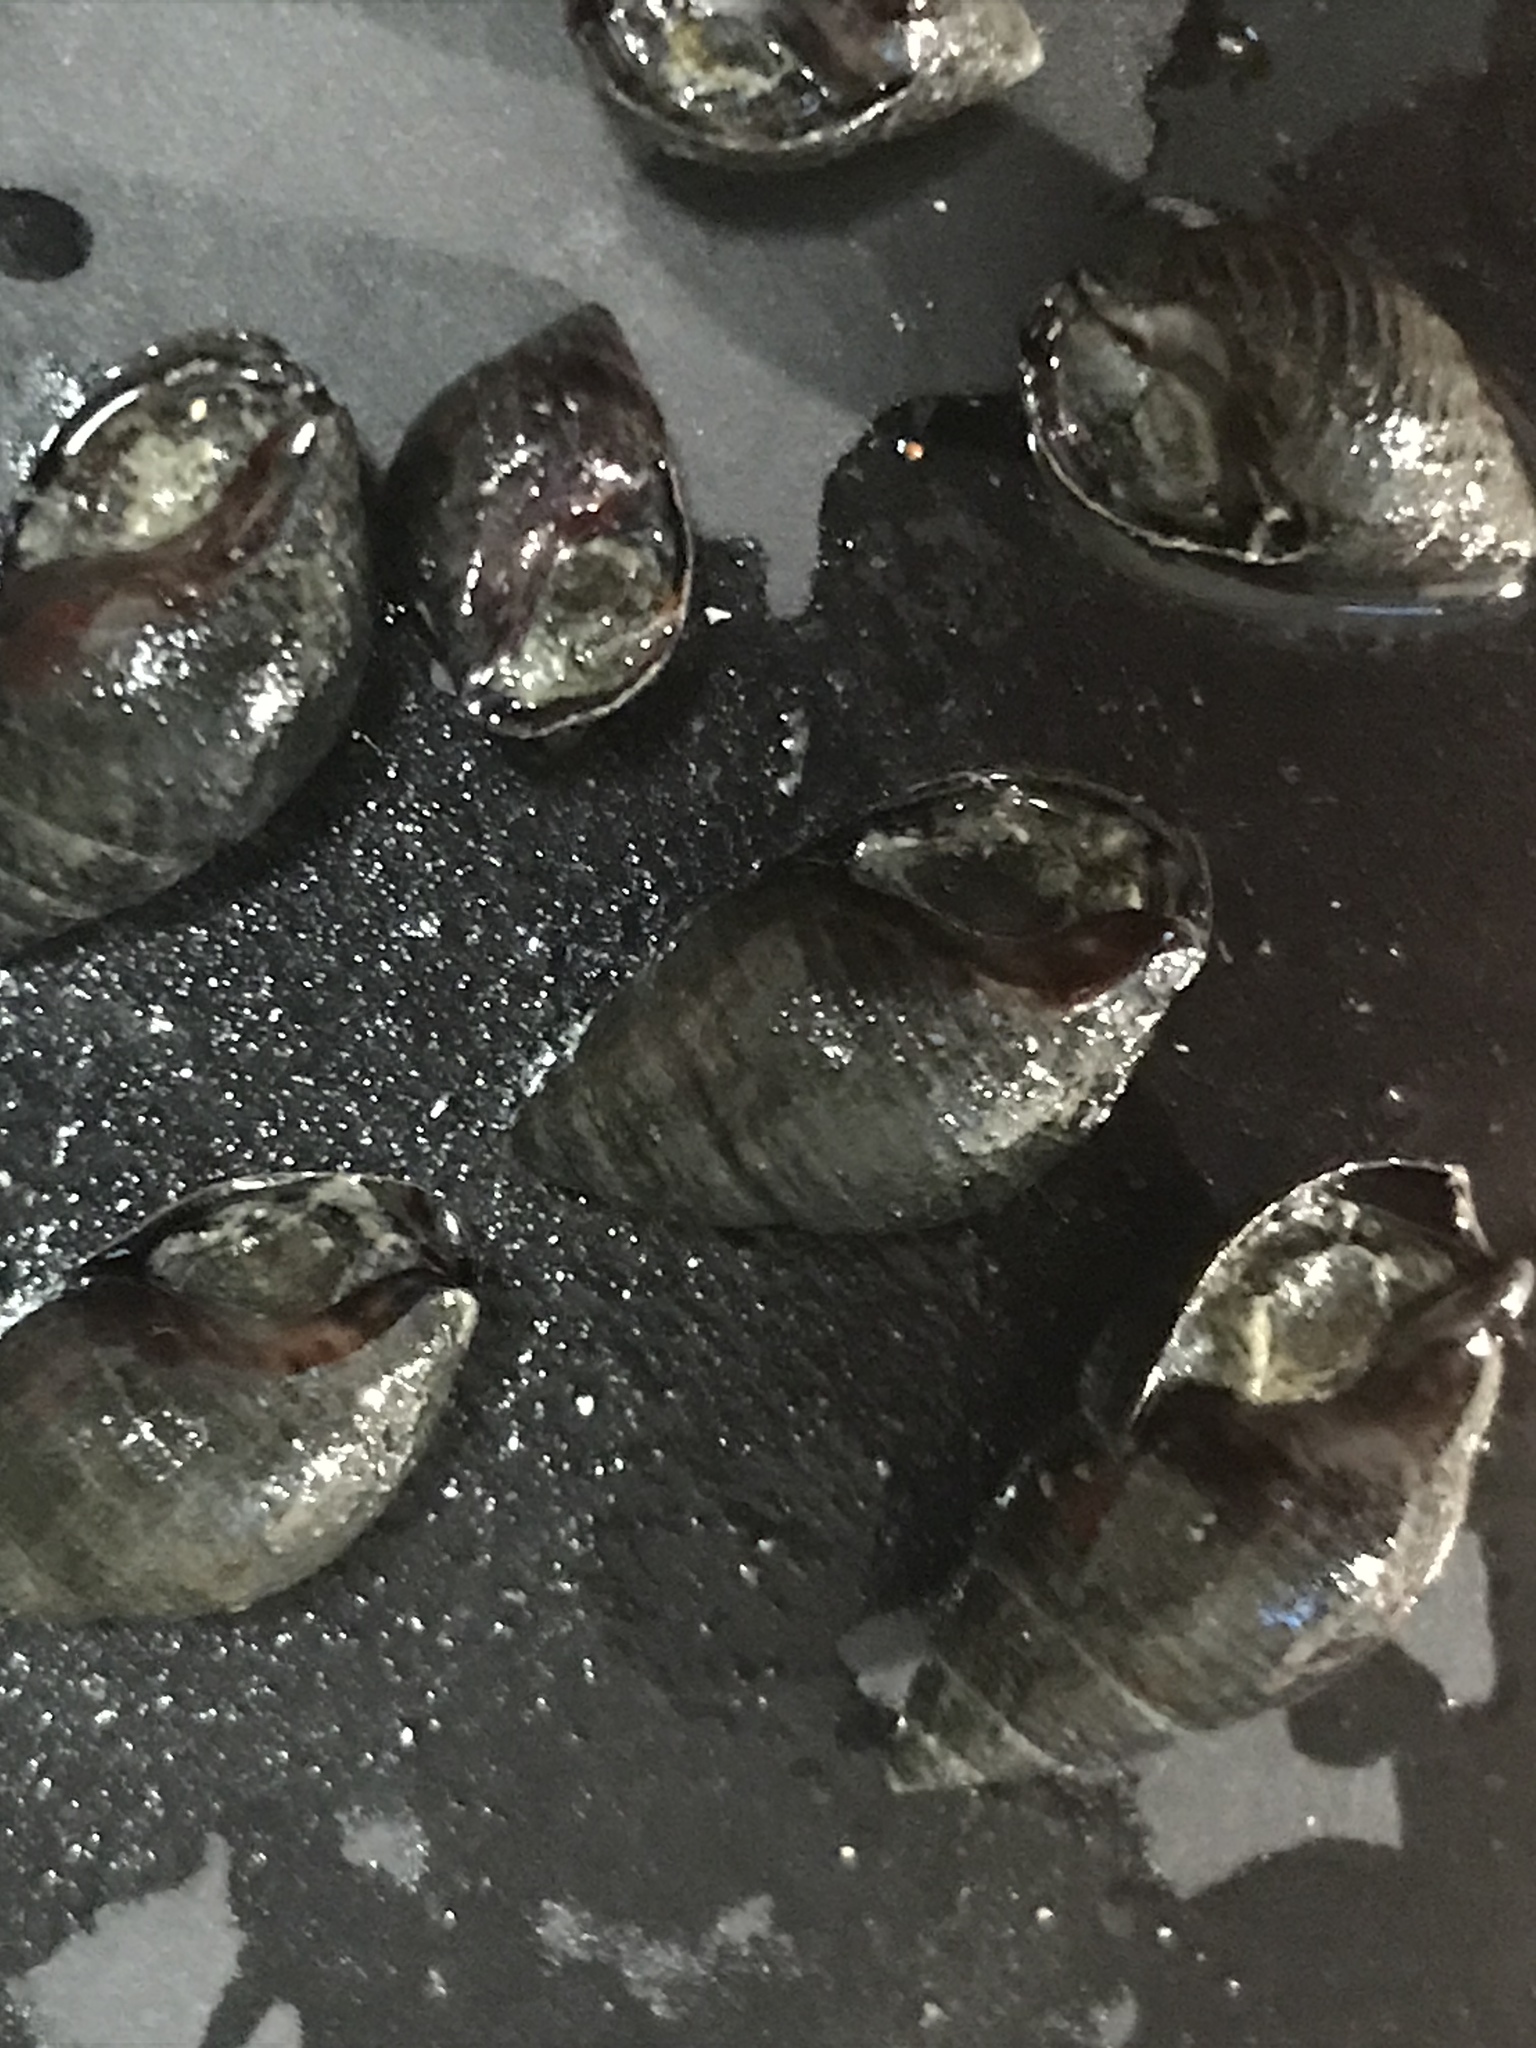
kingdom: Animalia
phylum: Mollusca
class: Gastropoda
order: Neogastropoda
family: Nassariidae
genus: Ilyanassa
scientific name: Ilyanassa obsoleta
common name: Eastern mudsnail
